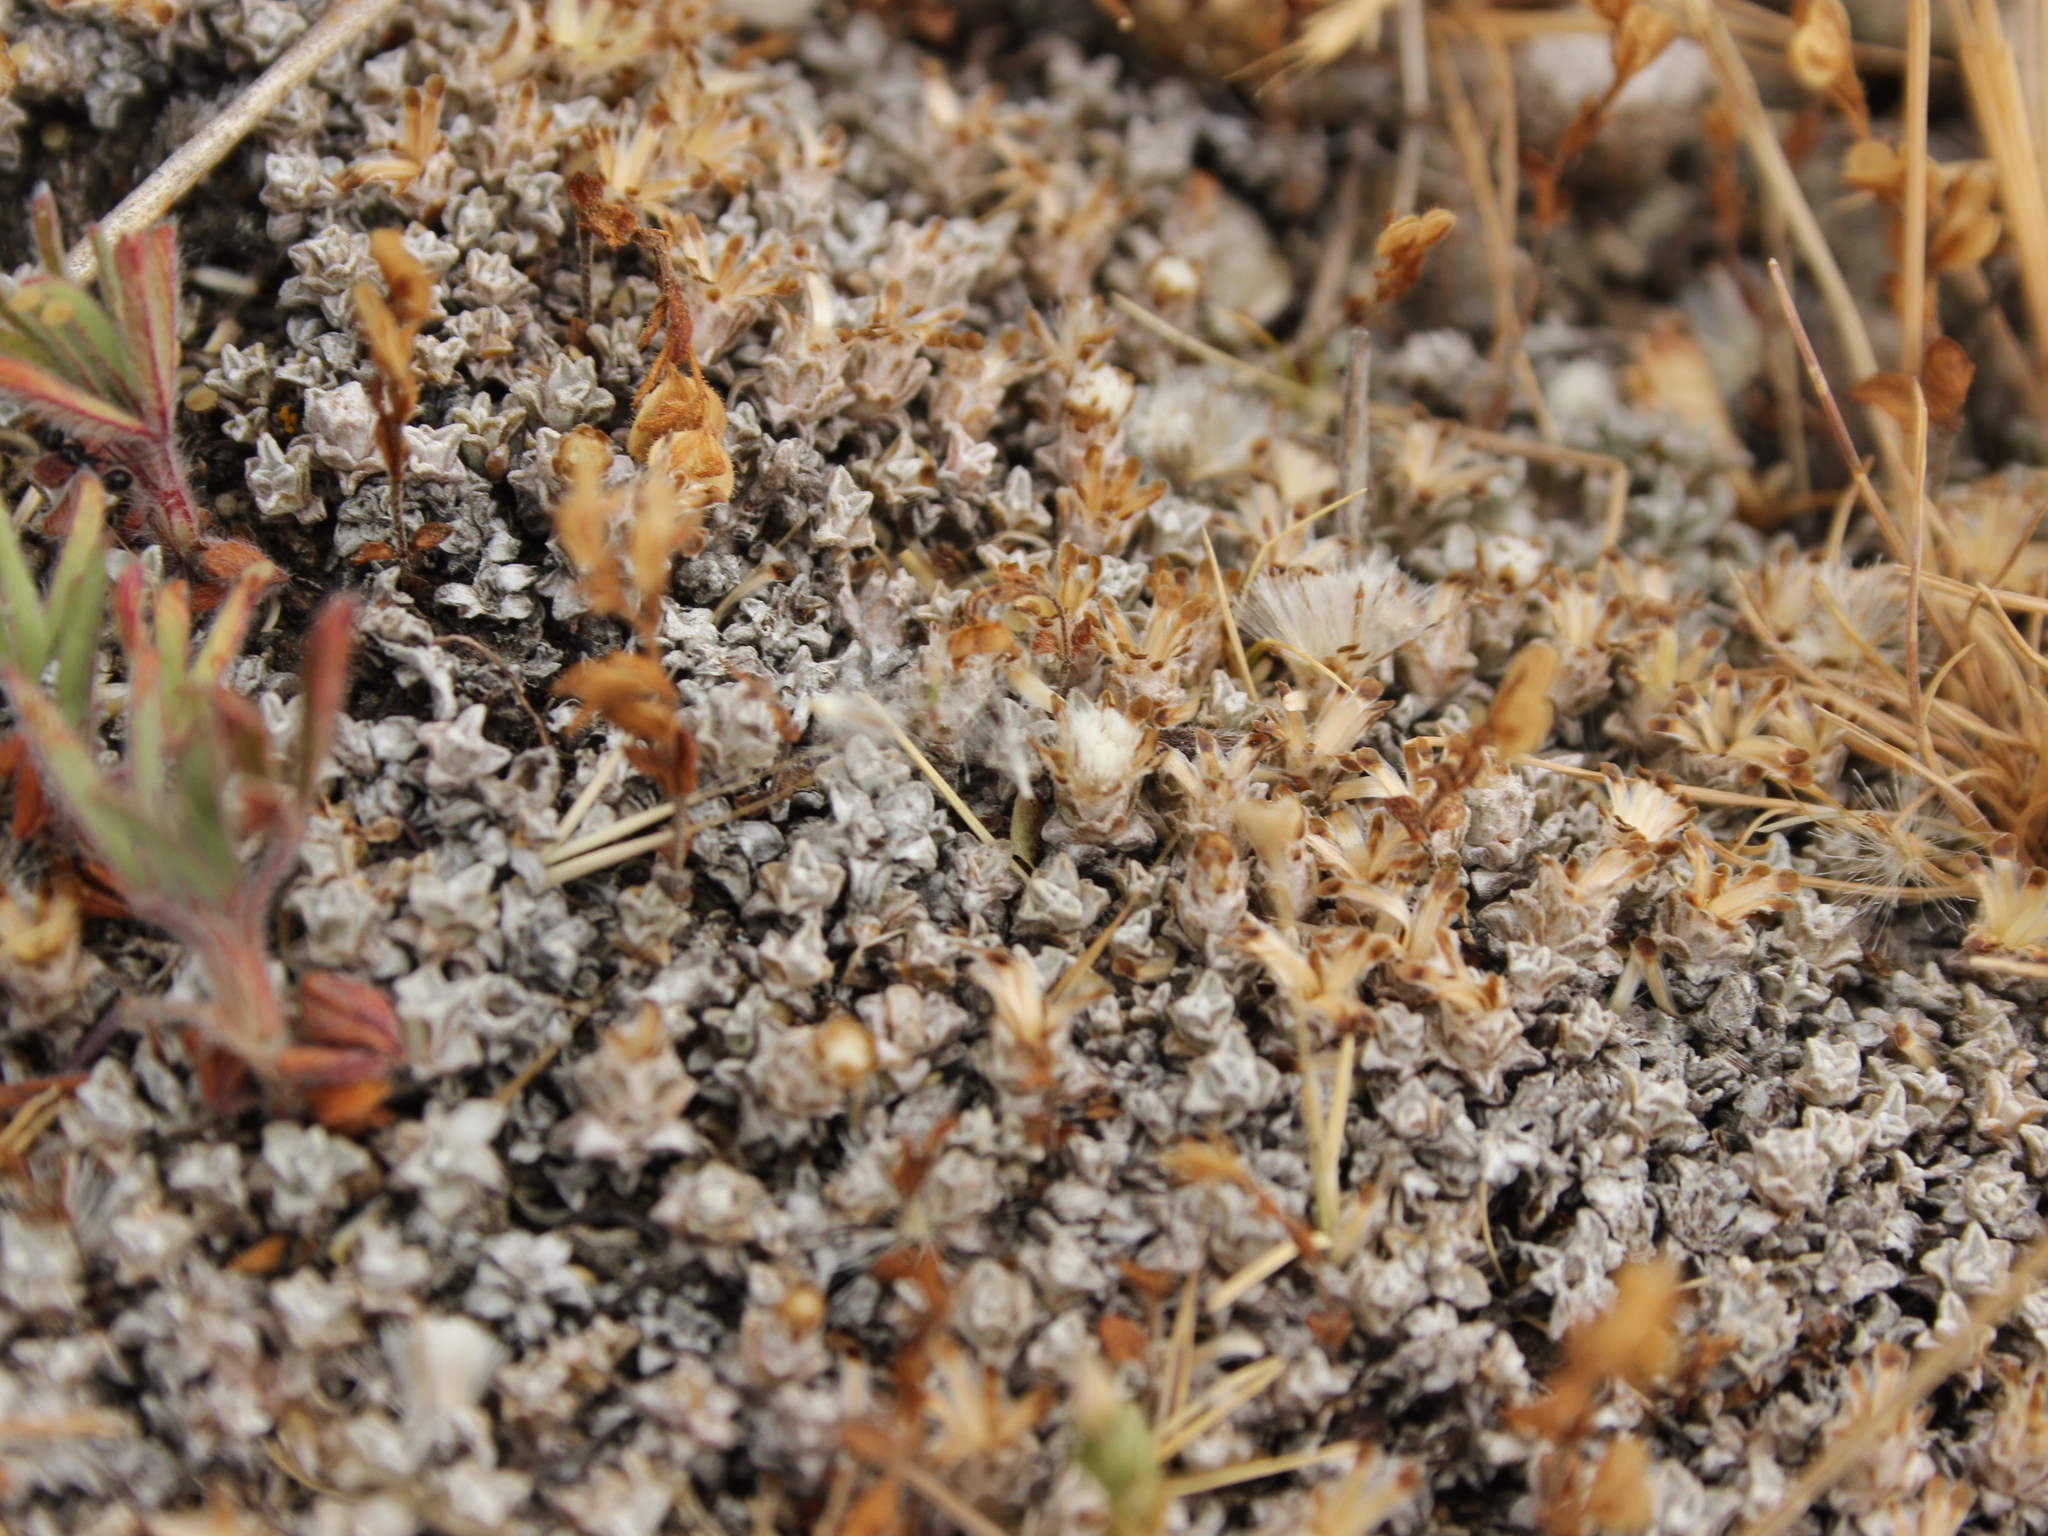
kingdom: Plantae
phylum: Tracheophyta
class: Magnoliopsida
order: Asterales
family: Asteraceae
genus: Raoulia
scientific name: Raoulia beauverdii
